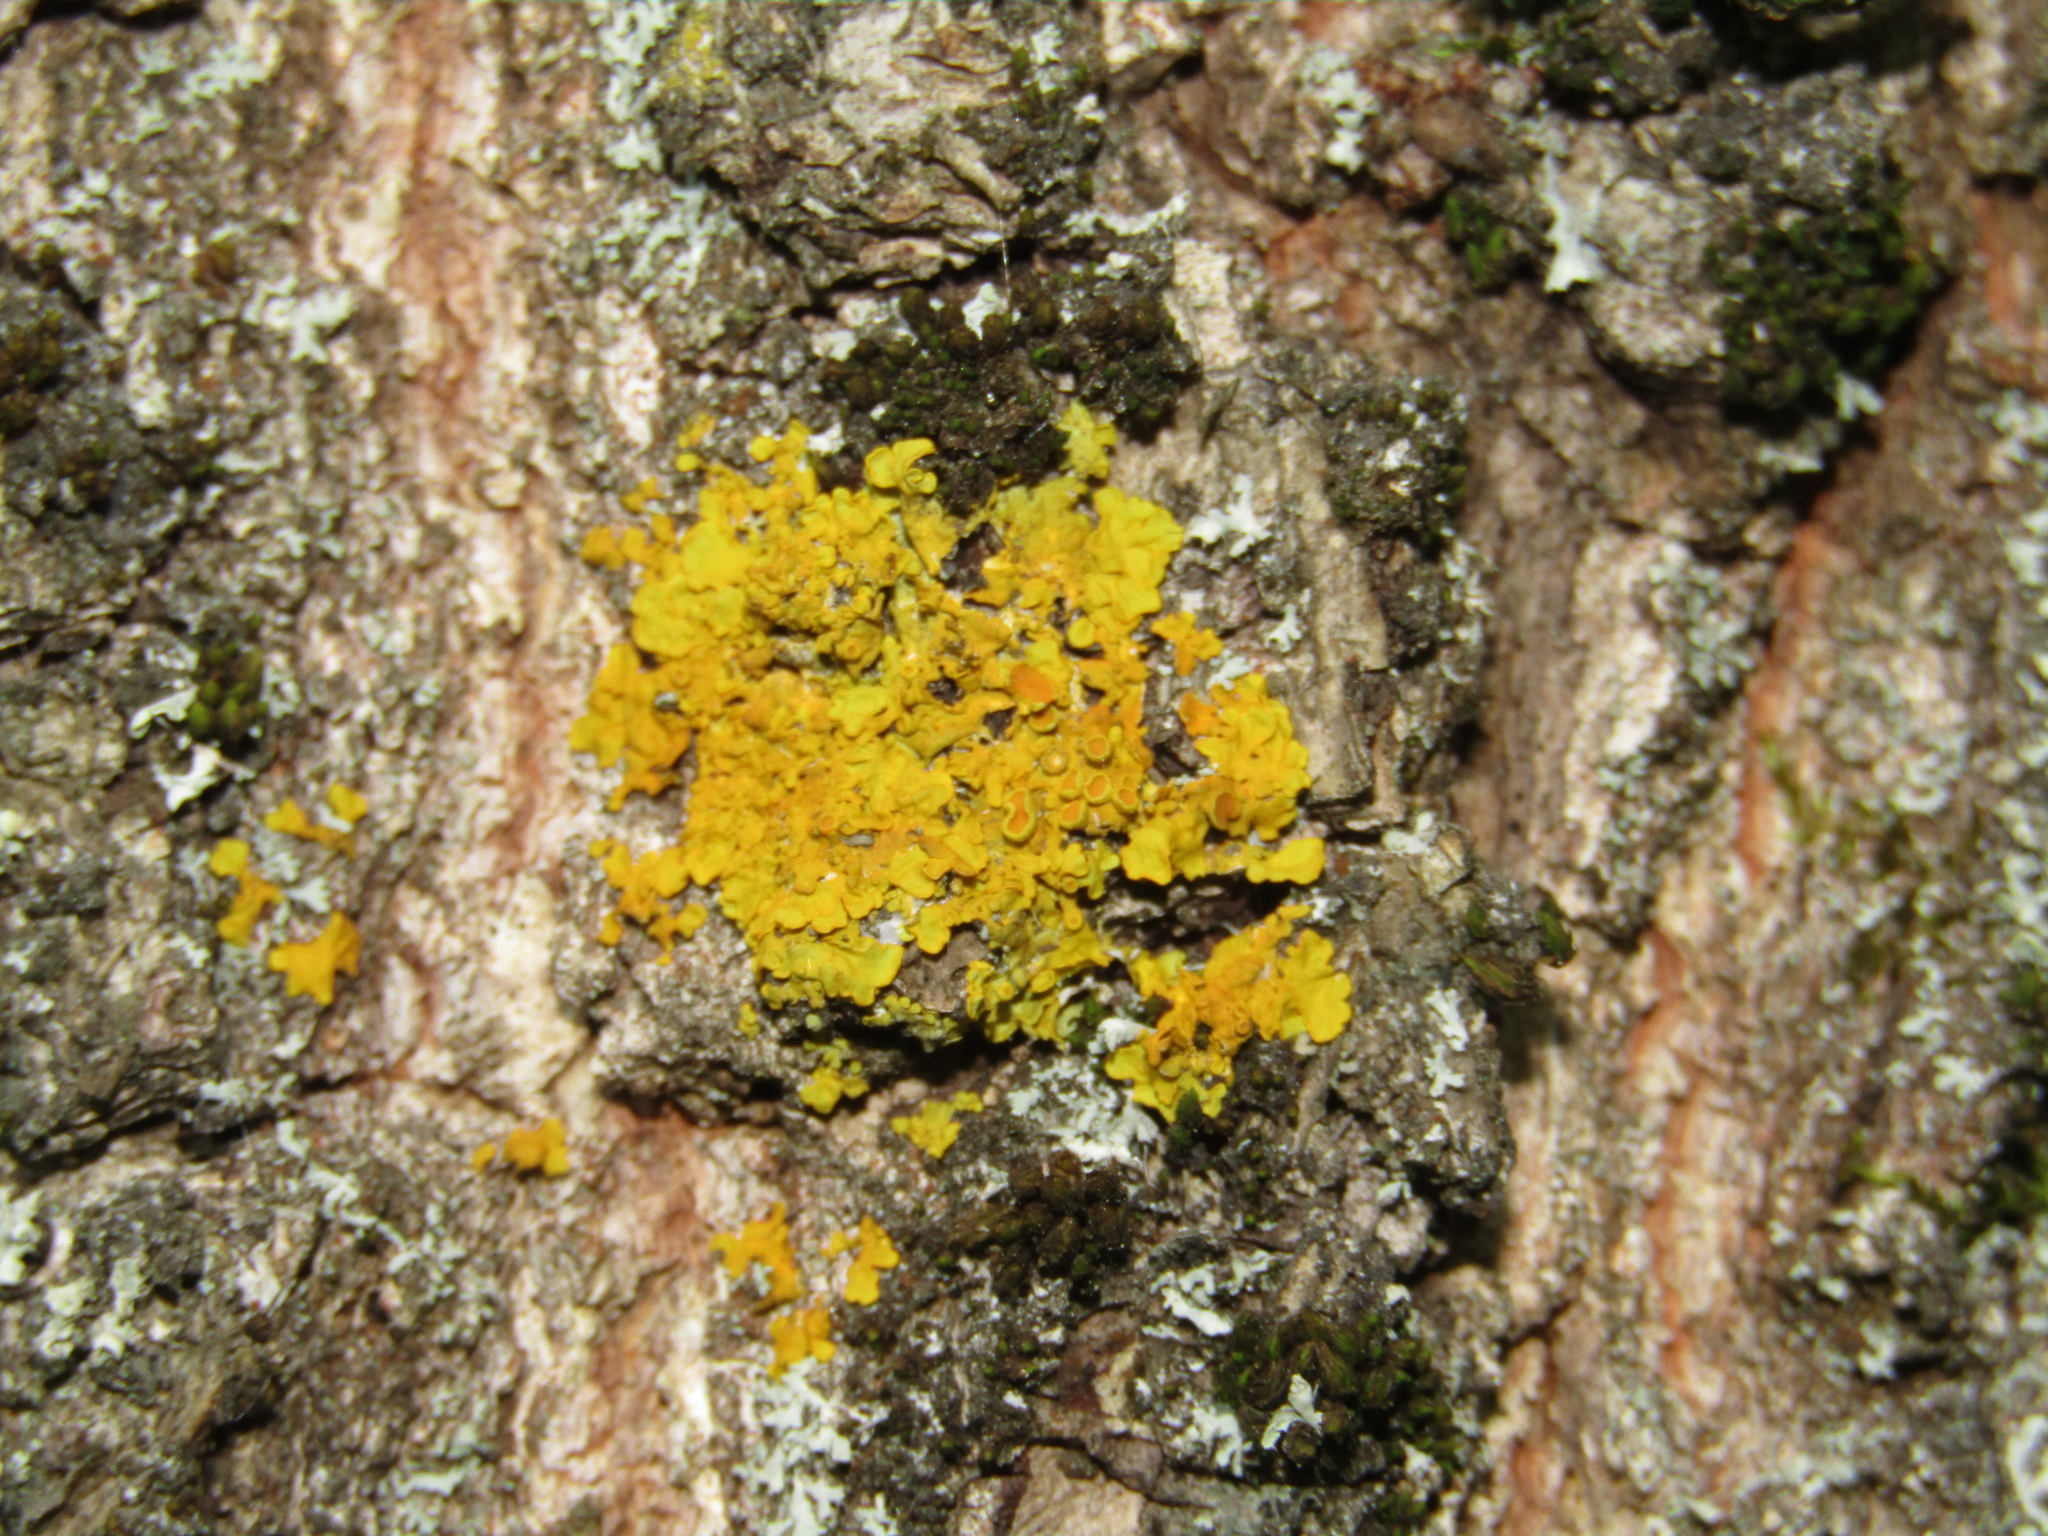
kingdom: Fungi
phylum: Ascomycota
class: Lecanoromycetes
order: Teloschistales
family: Teloschistaceae
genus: Xanthoria
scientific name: Xanthoria parietina
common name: Common orange lichen
